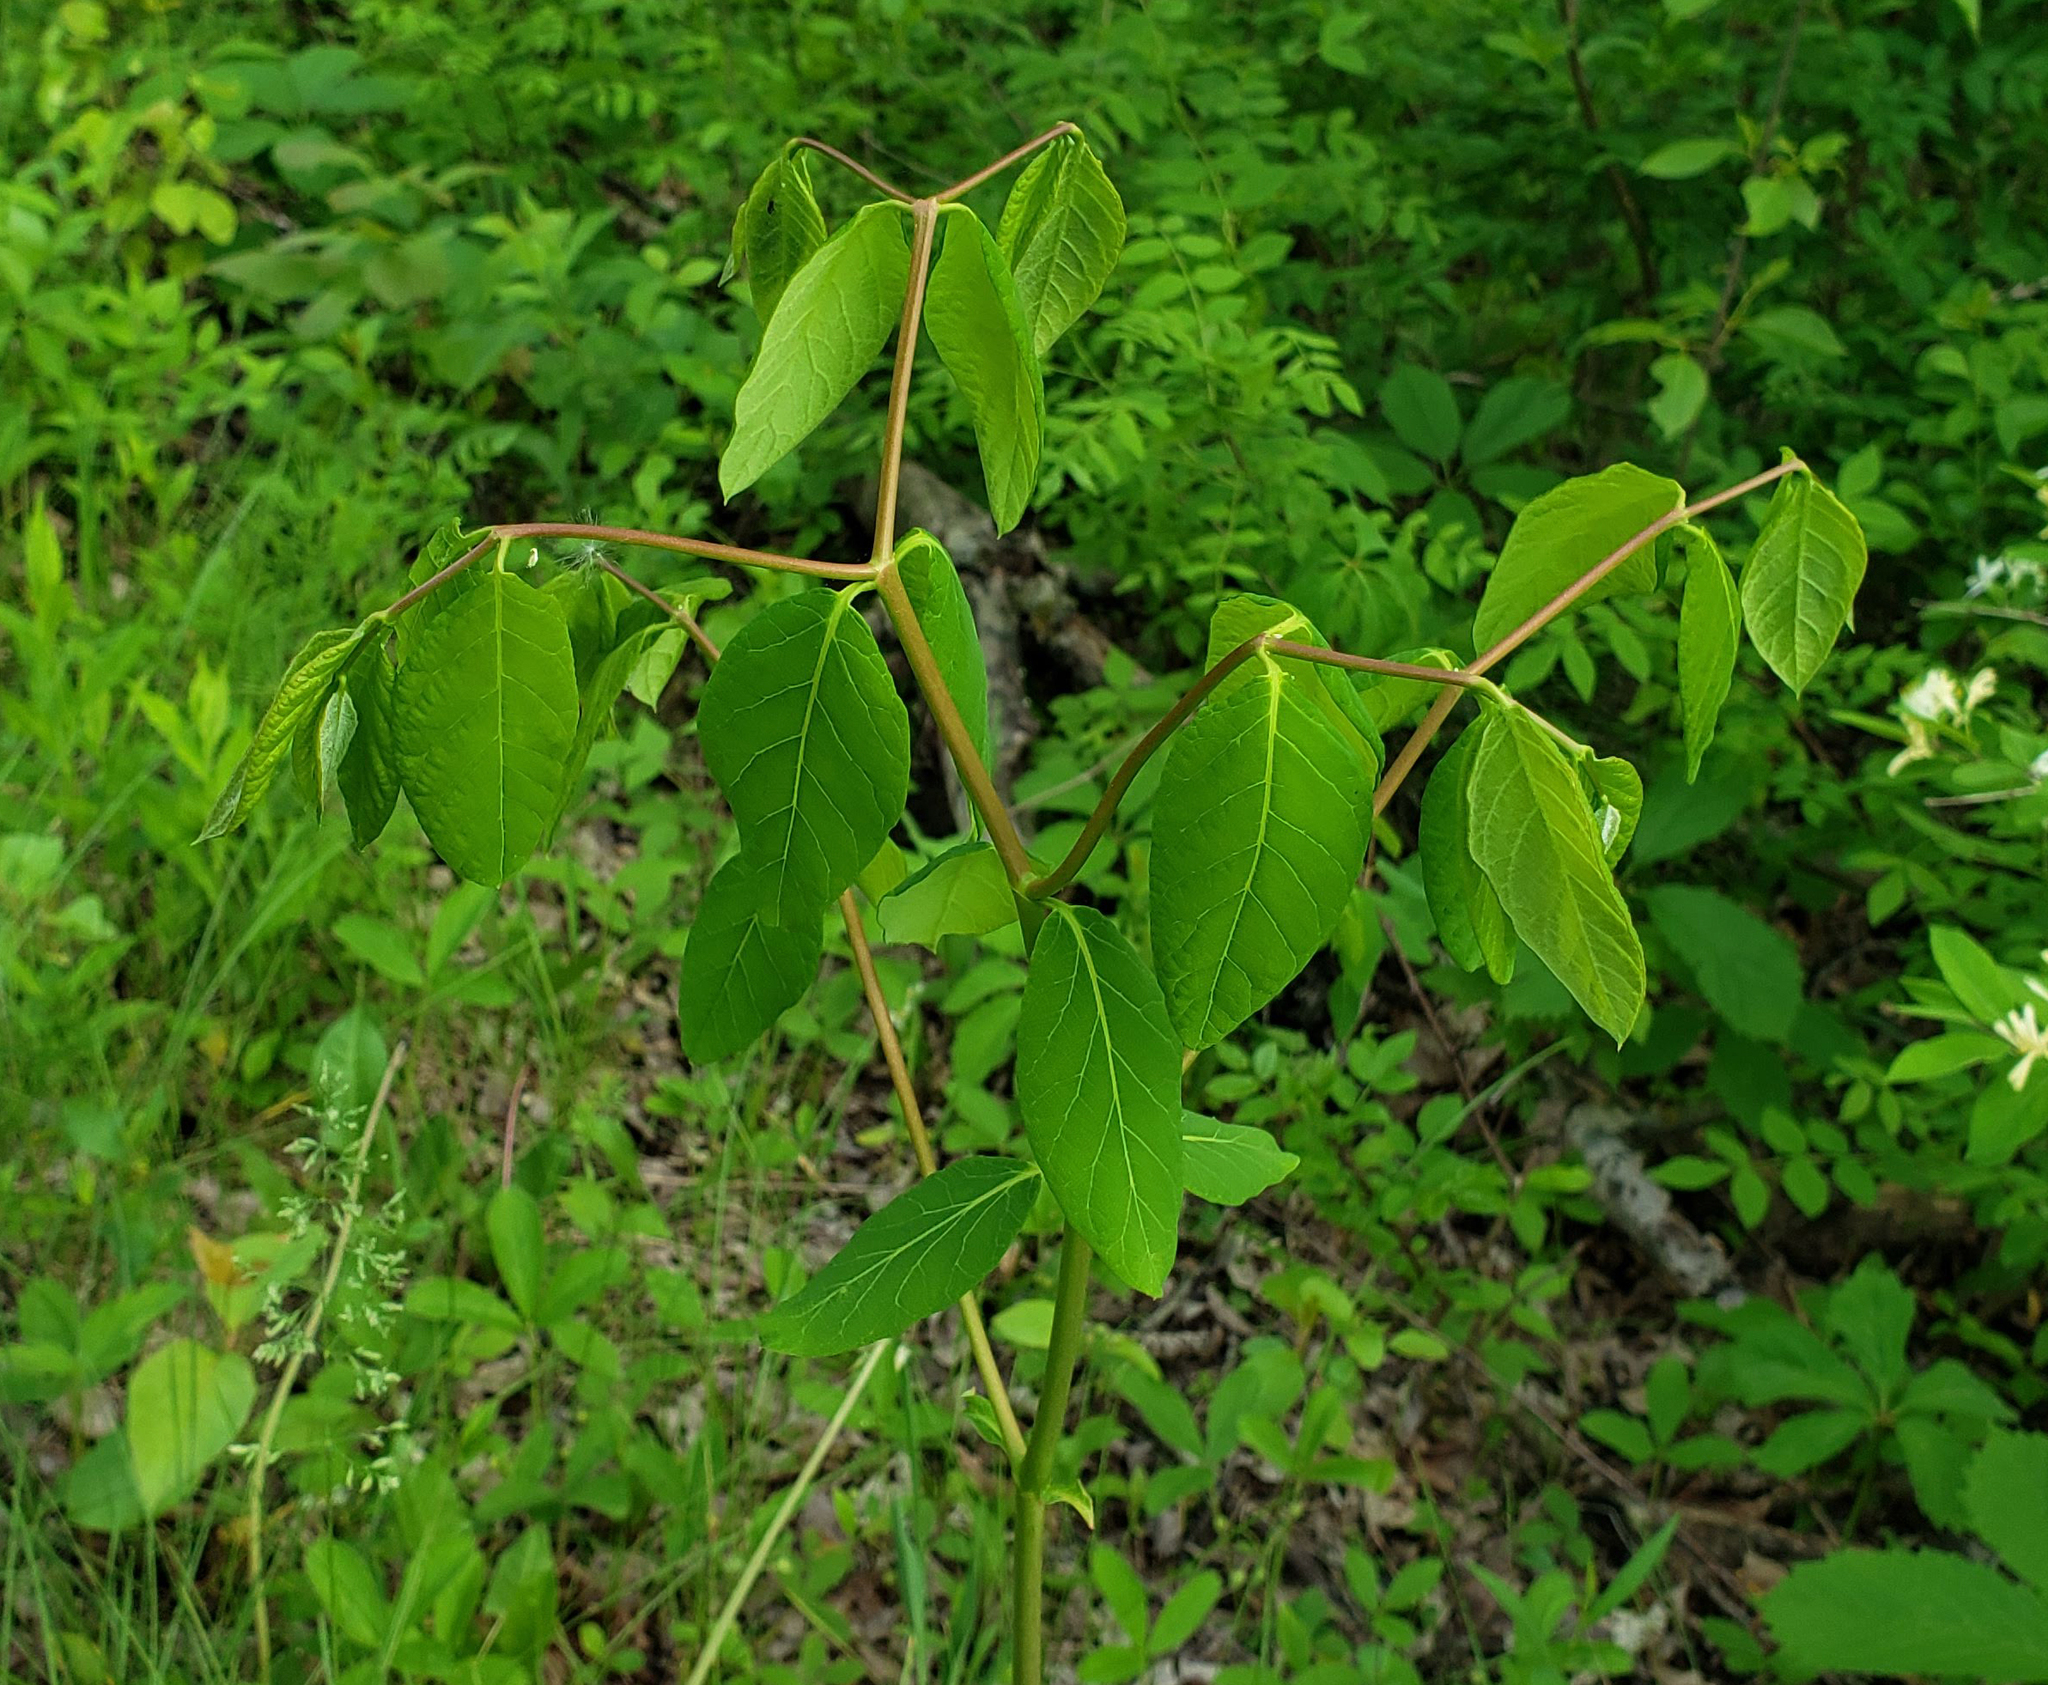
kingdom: Plantae
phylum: Tracheophyta
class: Magnoliopsida
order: Gentianales
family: Apocynaceae
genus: Apocynum
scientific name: Apocynum androsaemifolium
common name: Spreading dogbane
